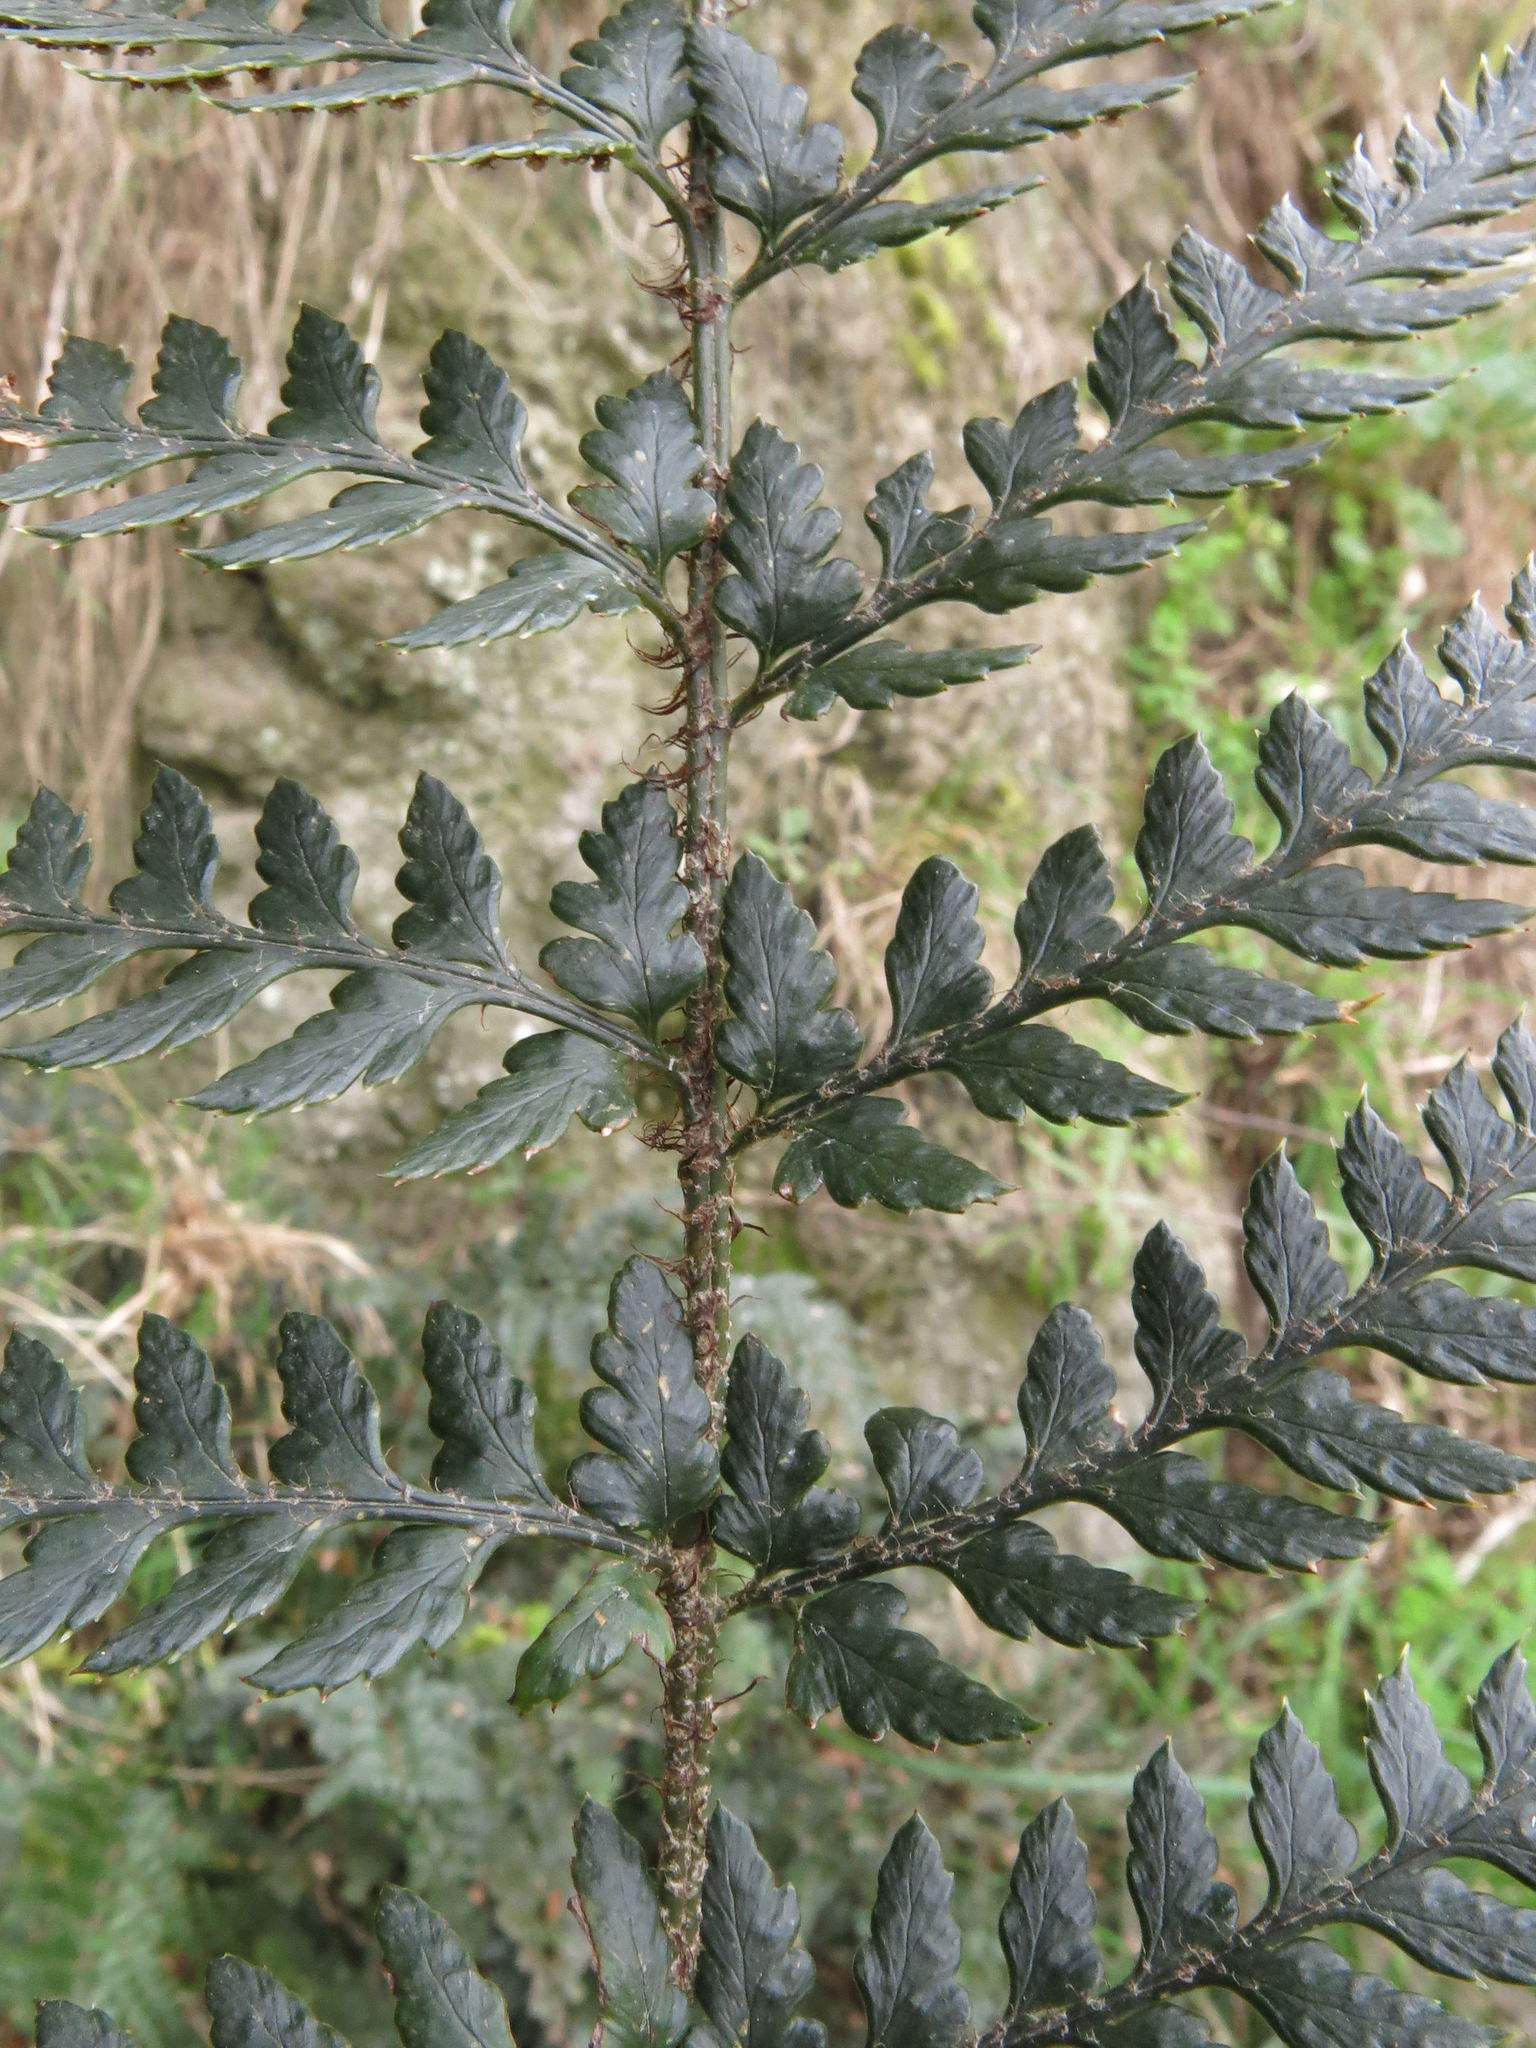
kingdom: Plantae
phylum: Tracheophyta
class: Polypodiopsida
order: Polypodiales
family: Dryopteridaceae
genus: Polystichum
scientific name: Polystichum neozelandicum
